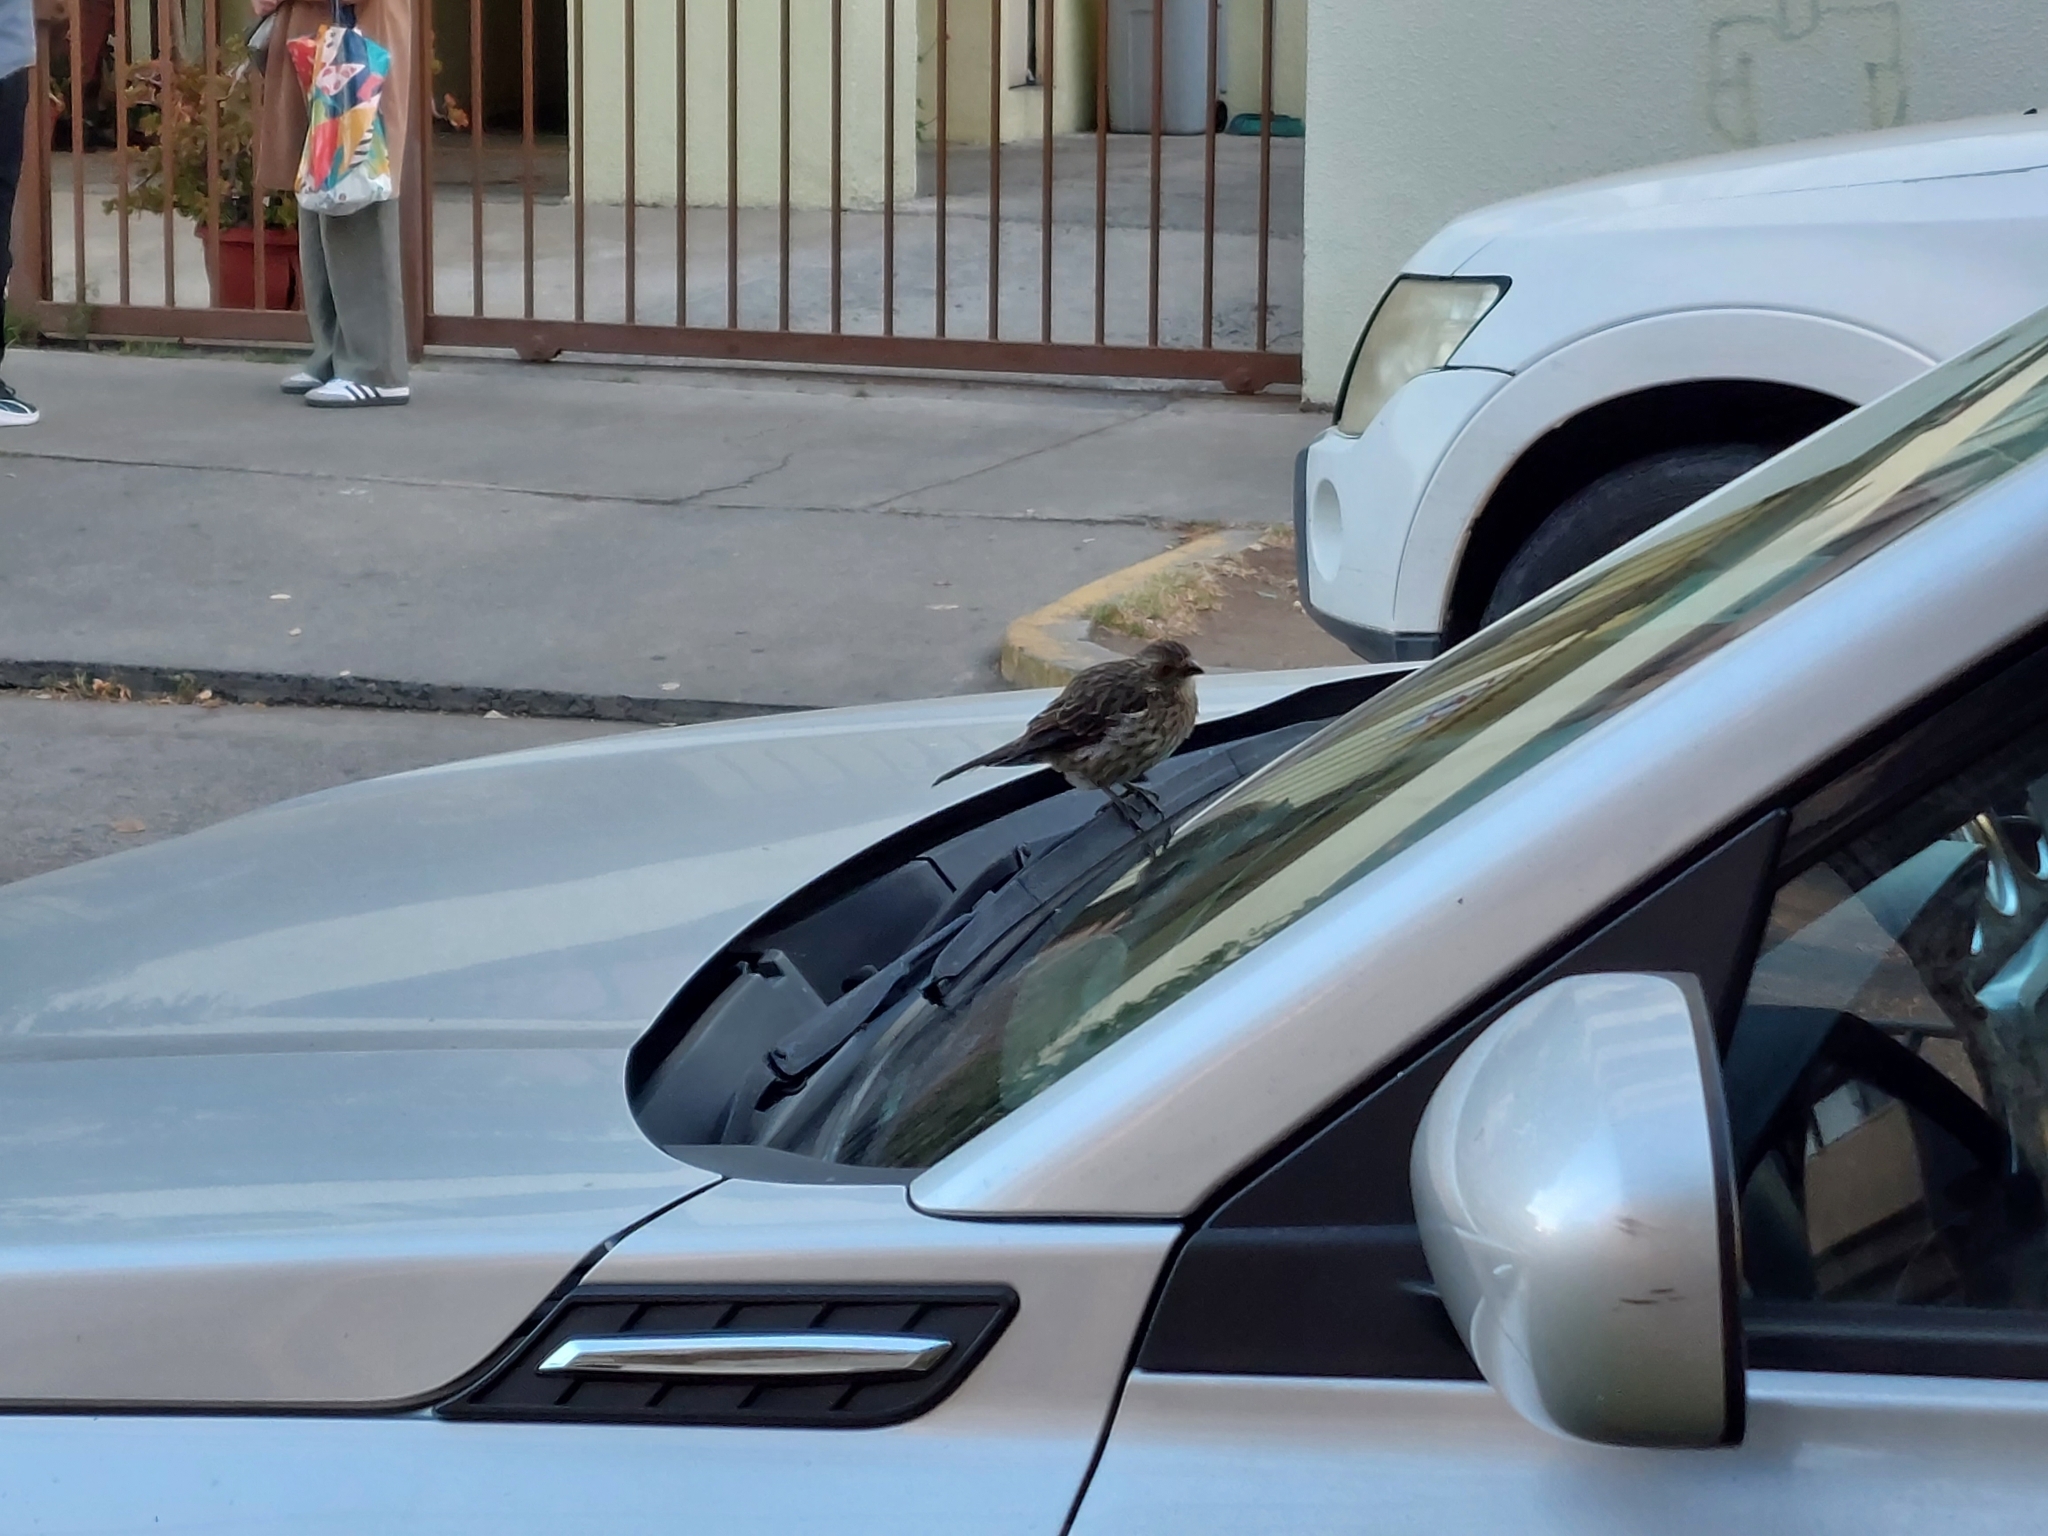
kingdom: Animalia
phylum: Chordata
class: Aves
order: Passeriformes
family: Cotingidae
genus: Phytotoma
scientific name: Phytotoma rara
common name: Rufous-tailed plantcutter
